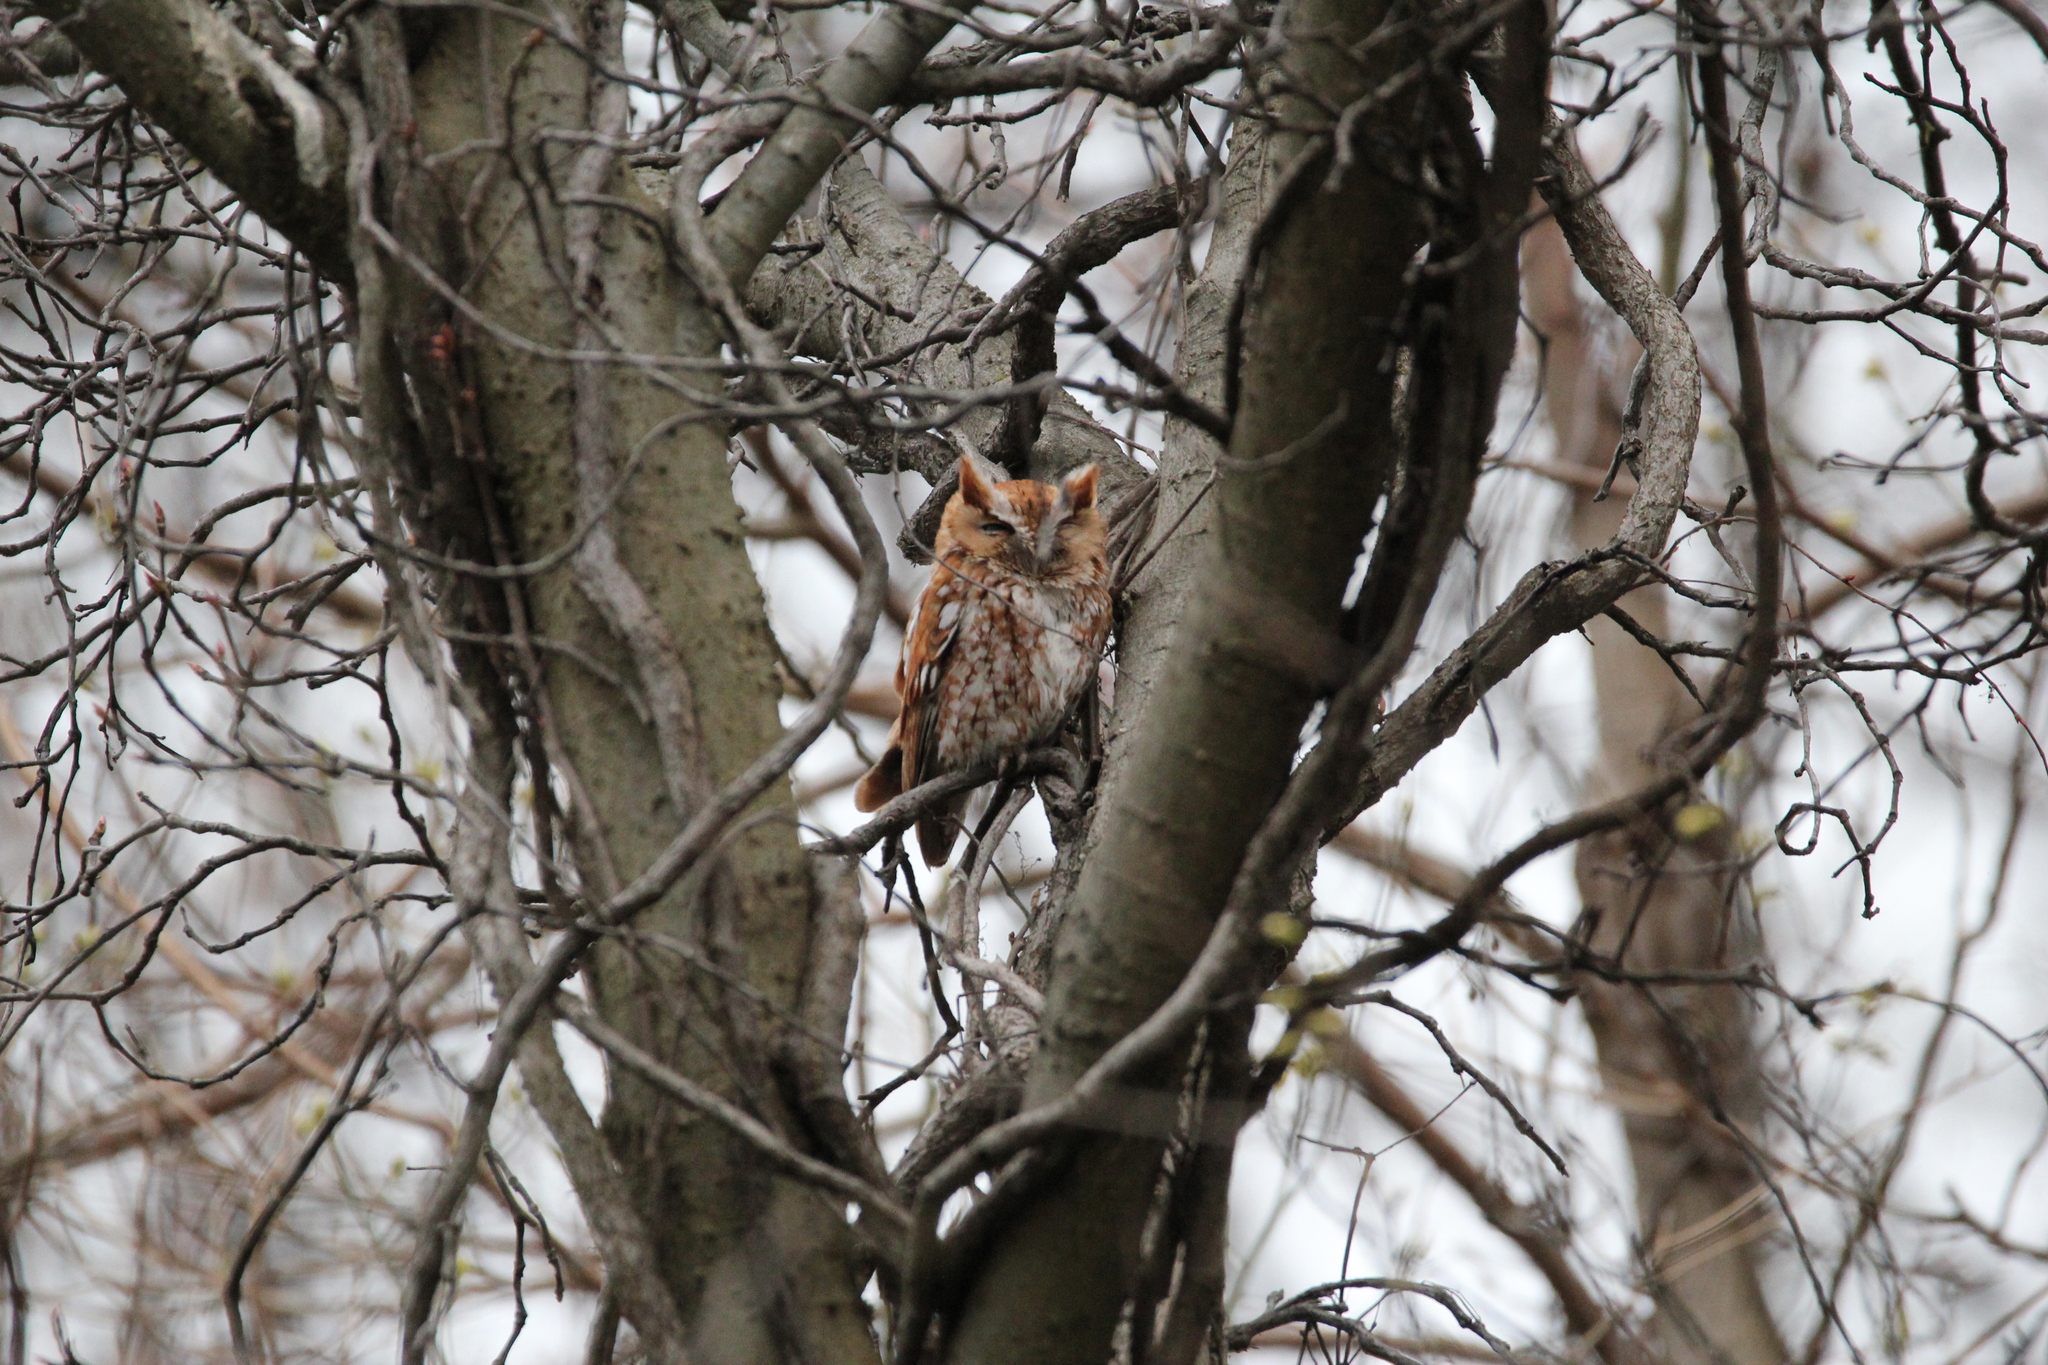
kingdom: Animalia
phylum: Chordata
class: Aves
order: Strigiformes
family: Strigidae
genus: Megascops
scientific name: Megascops asio
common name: Eastern screech-owl
